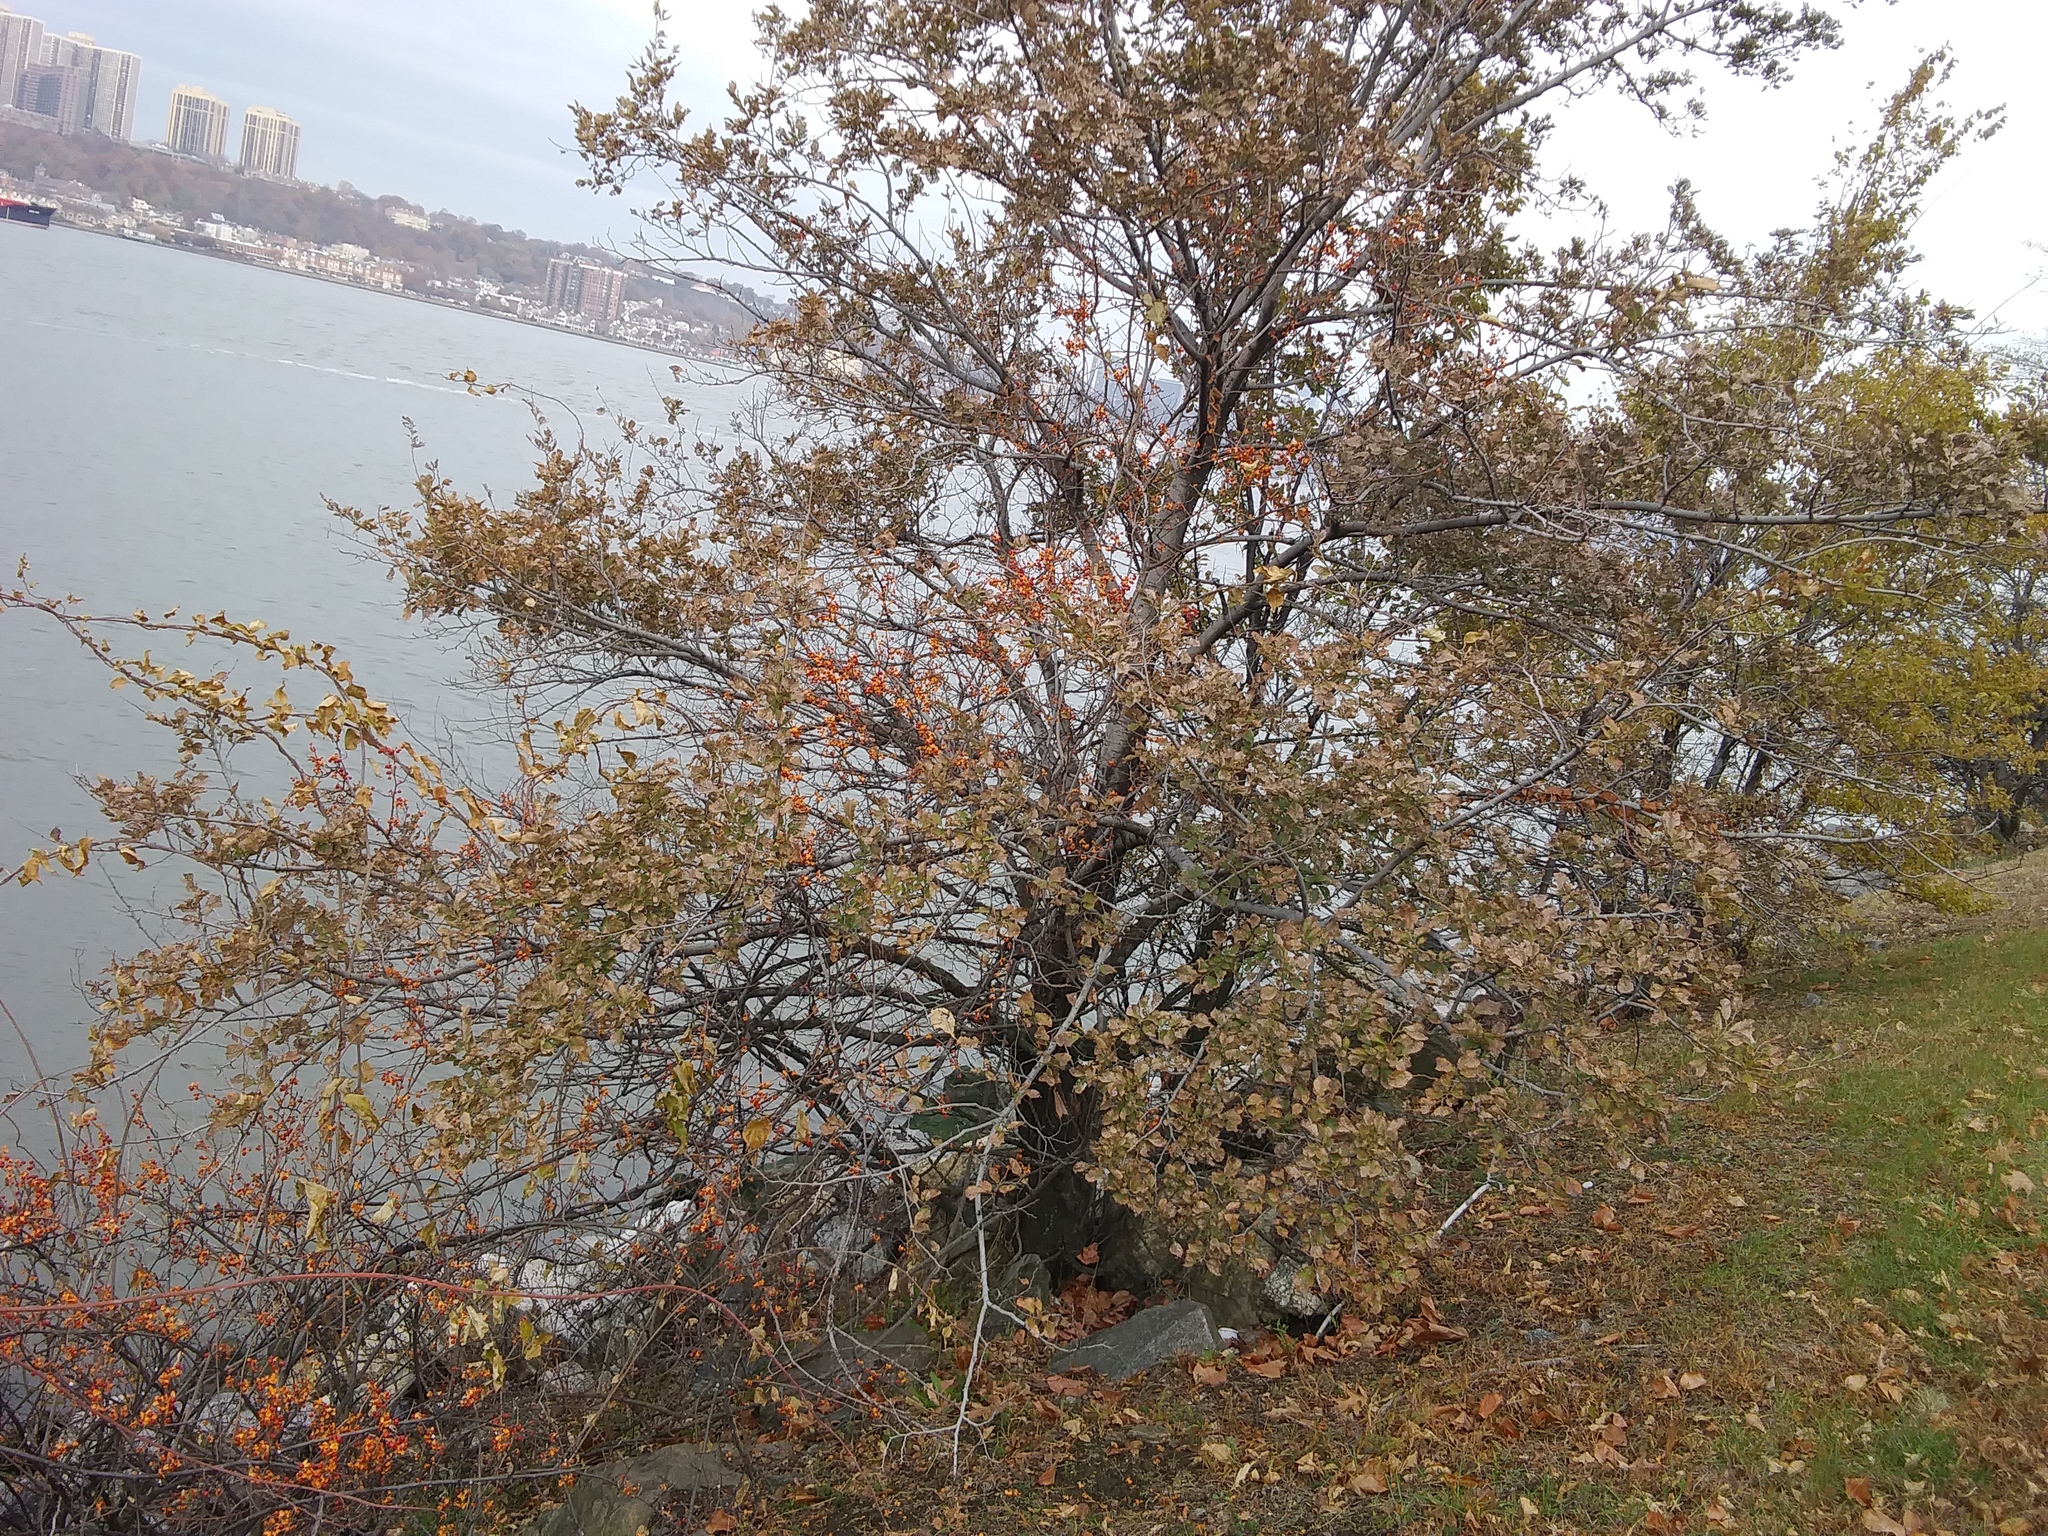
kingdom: Plantae
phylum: Tracheophyta
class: Magnoliopsida
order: Celastrales
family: Celastraceae
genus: Celastrus
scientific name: Celastrus orbiculatus
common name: Oriental bittersweet
